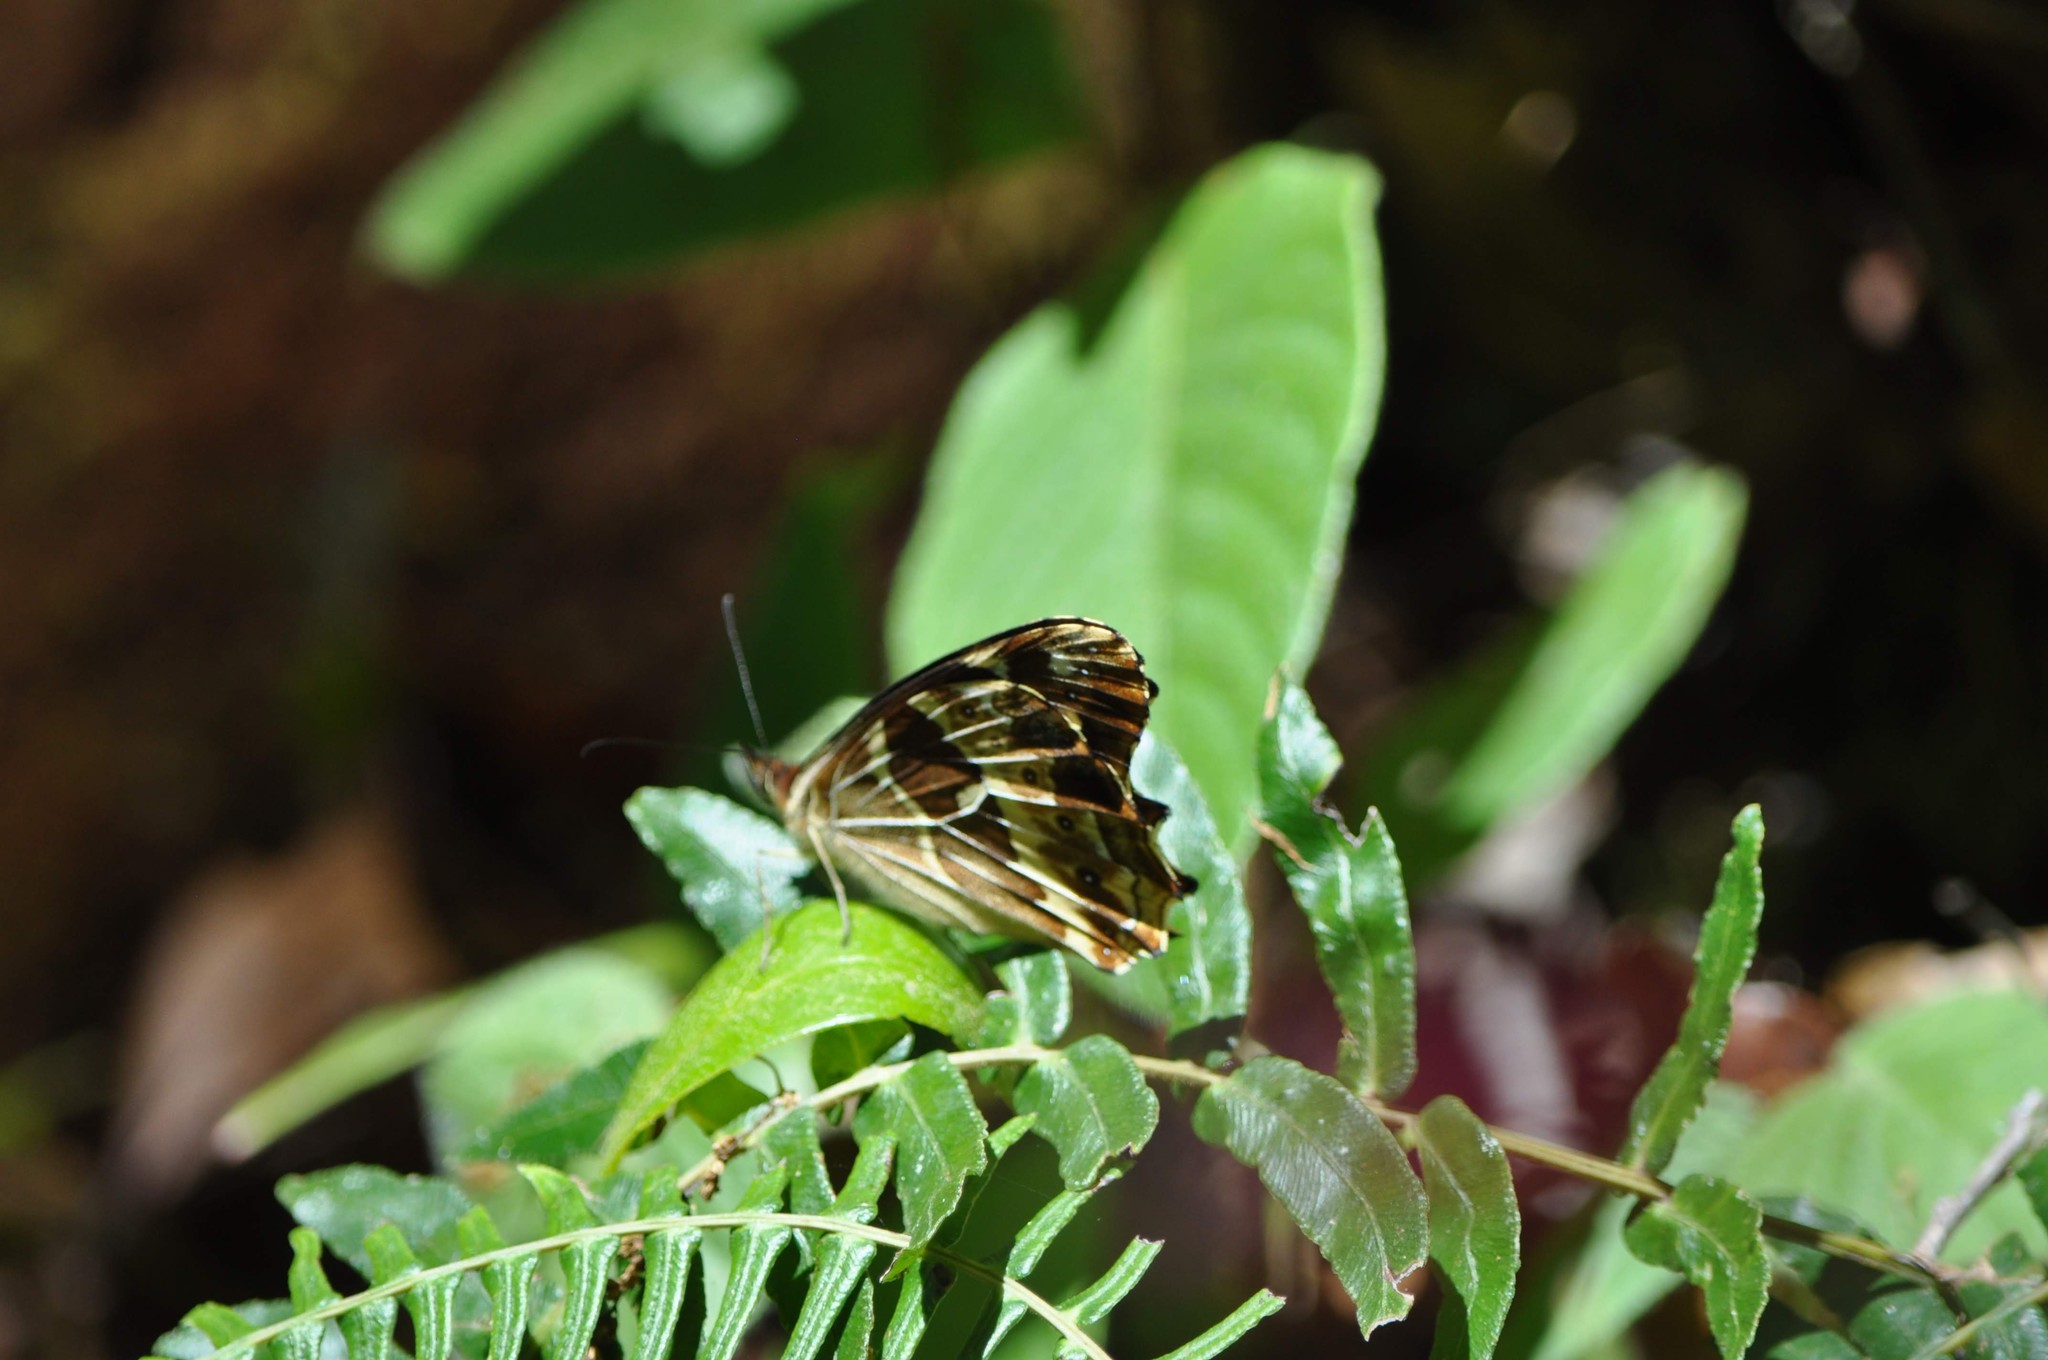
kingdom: Animalia
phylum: Arthropoda
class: Insecta
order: Lepidoptera
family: Nymphalidae
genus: Oxeoschistus
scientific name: Oxeoschistus tauropolis
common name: Starred oxeo
